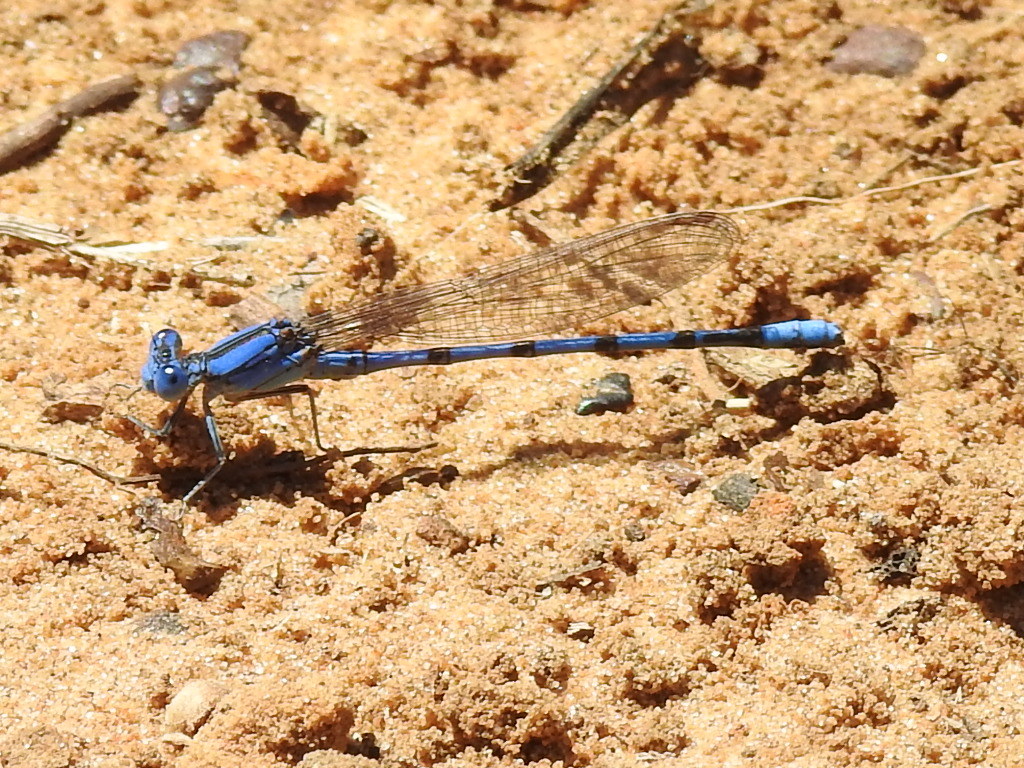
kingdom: Animalia
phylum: Arthropoda
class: Insecta
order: Odonata
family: Coenagrionidae
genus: Argia
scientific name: Argia nahuana
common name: Aztec dancer
